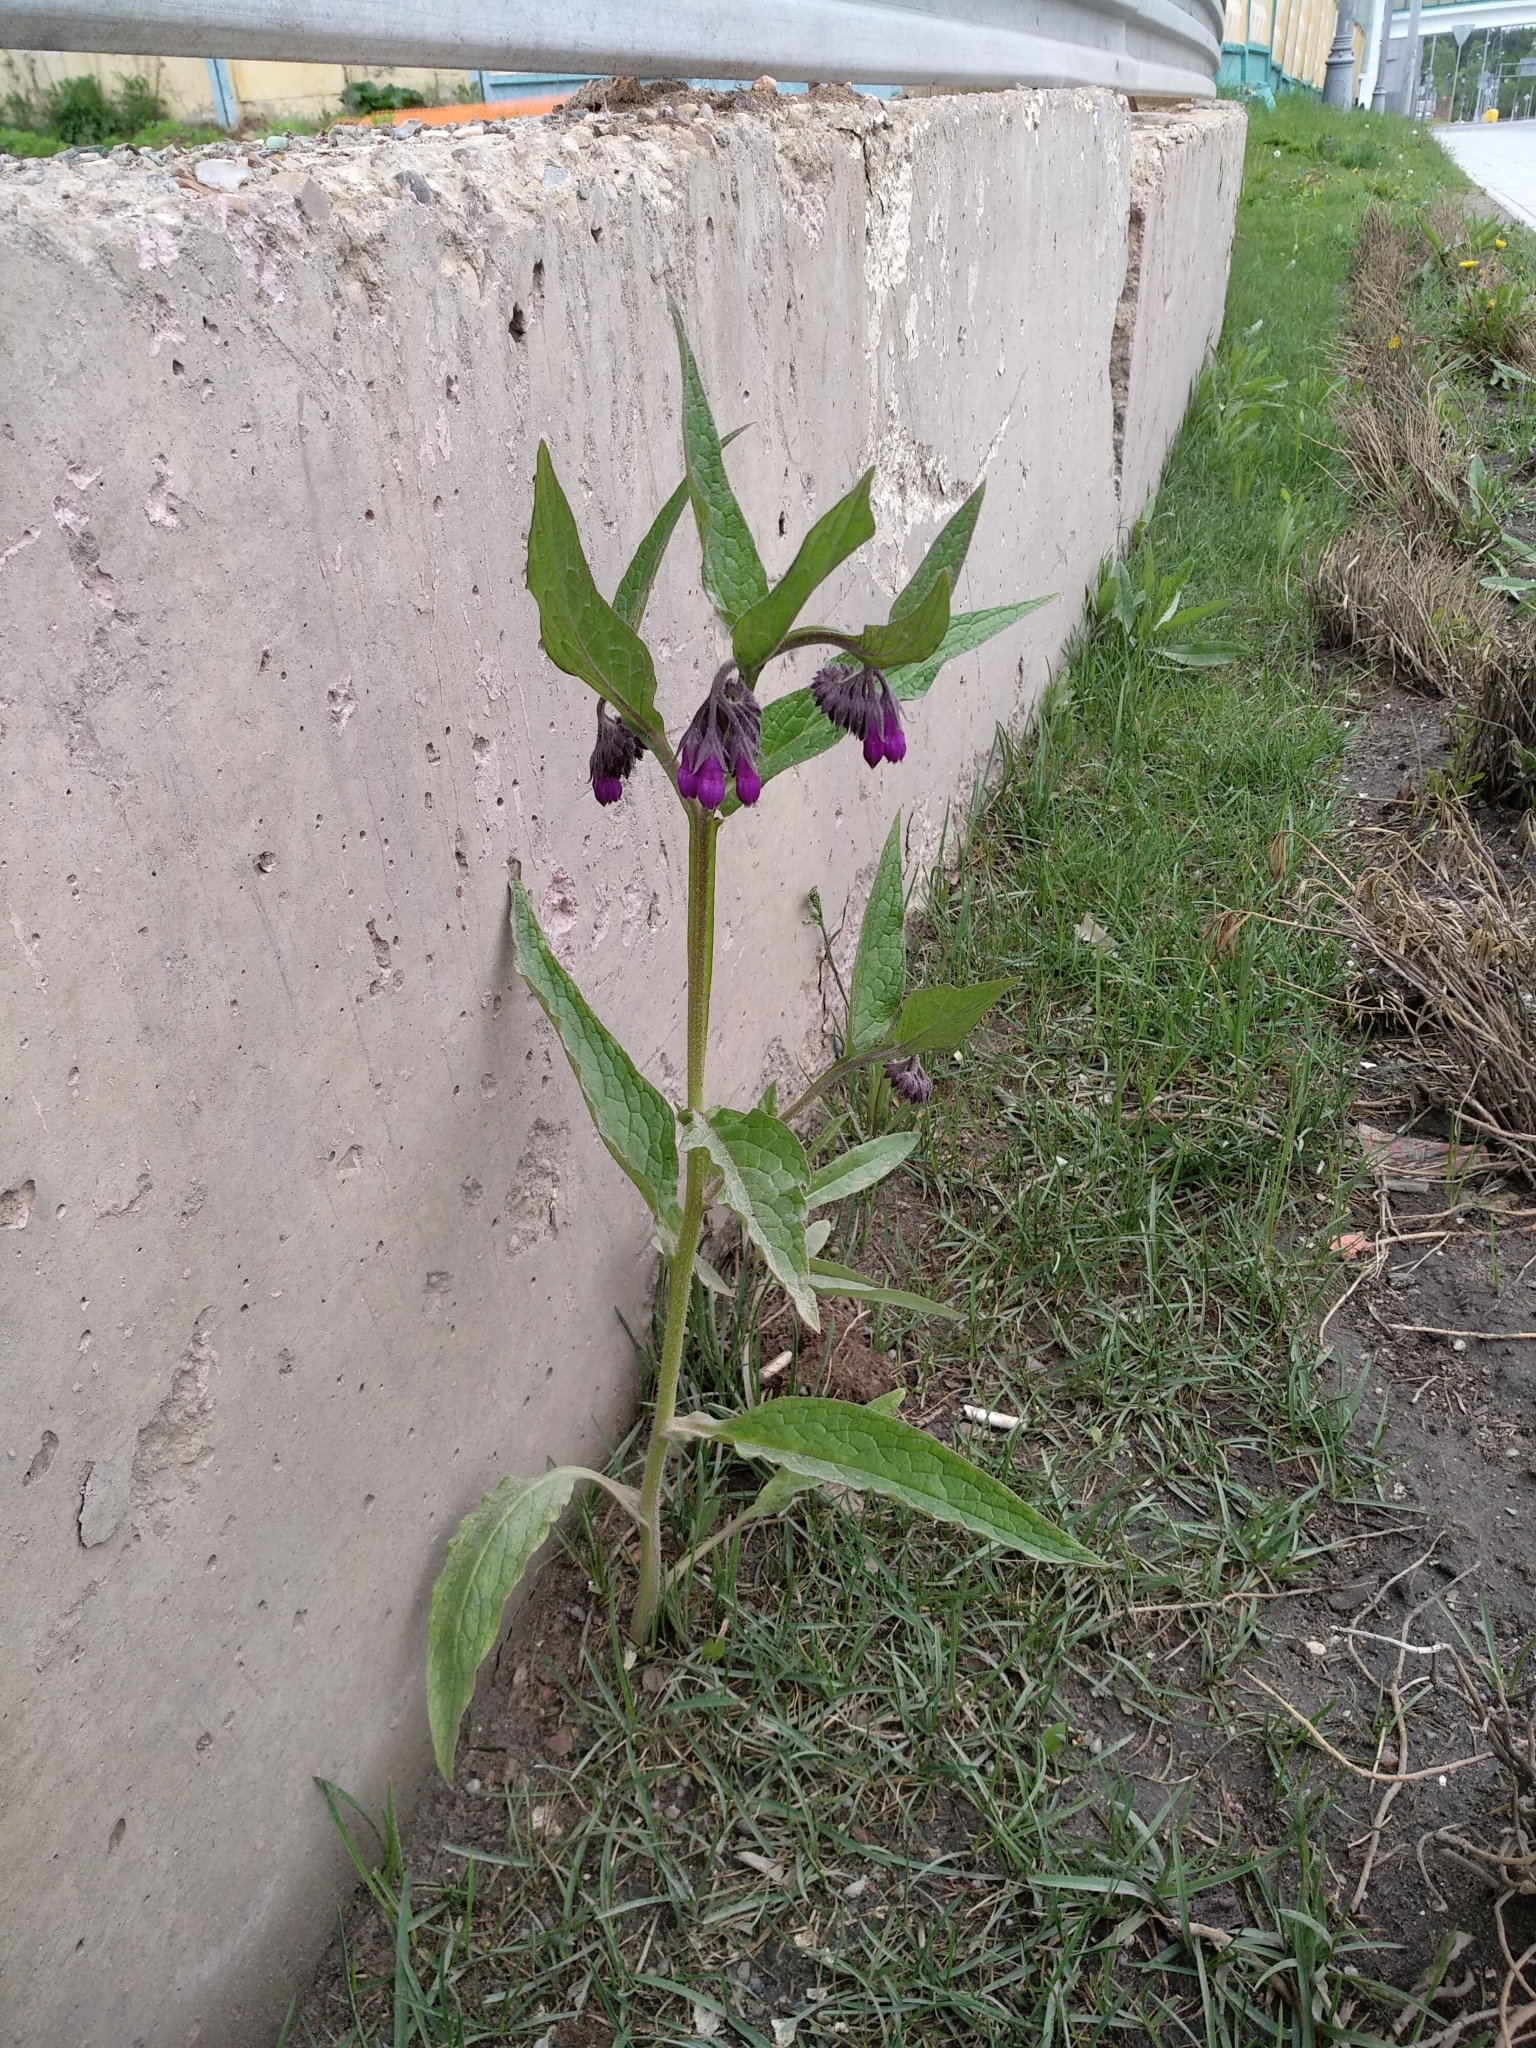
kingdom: Plantae
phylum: Tracheophyta
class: Magnoliopsida
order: Boraginales
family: Boraginaceae
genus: Symphytum
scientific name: Symphytum officinale
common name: Common comfrey
